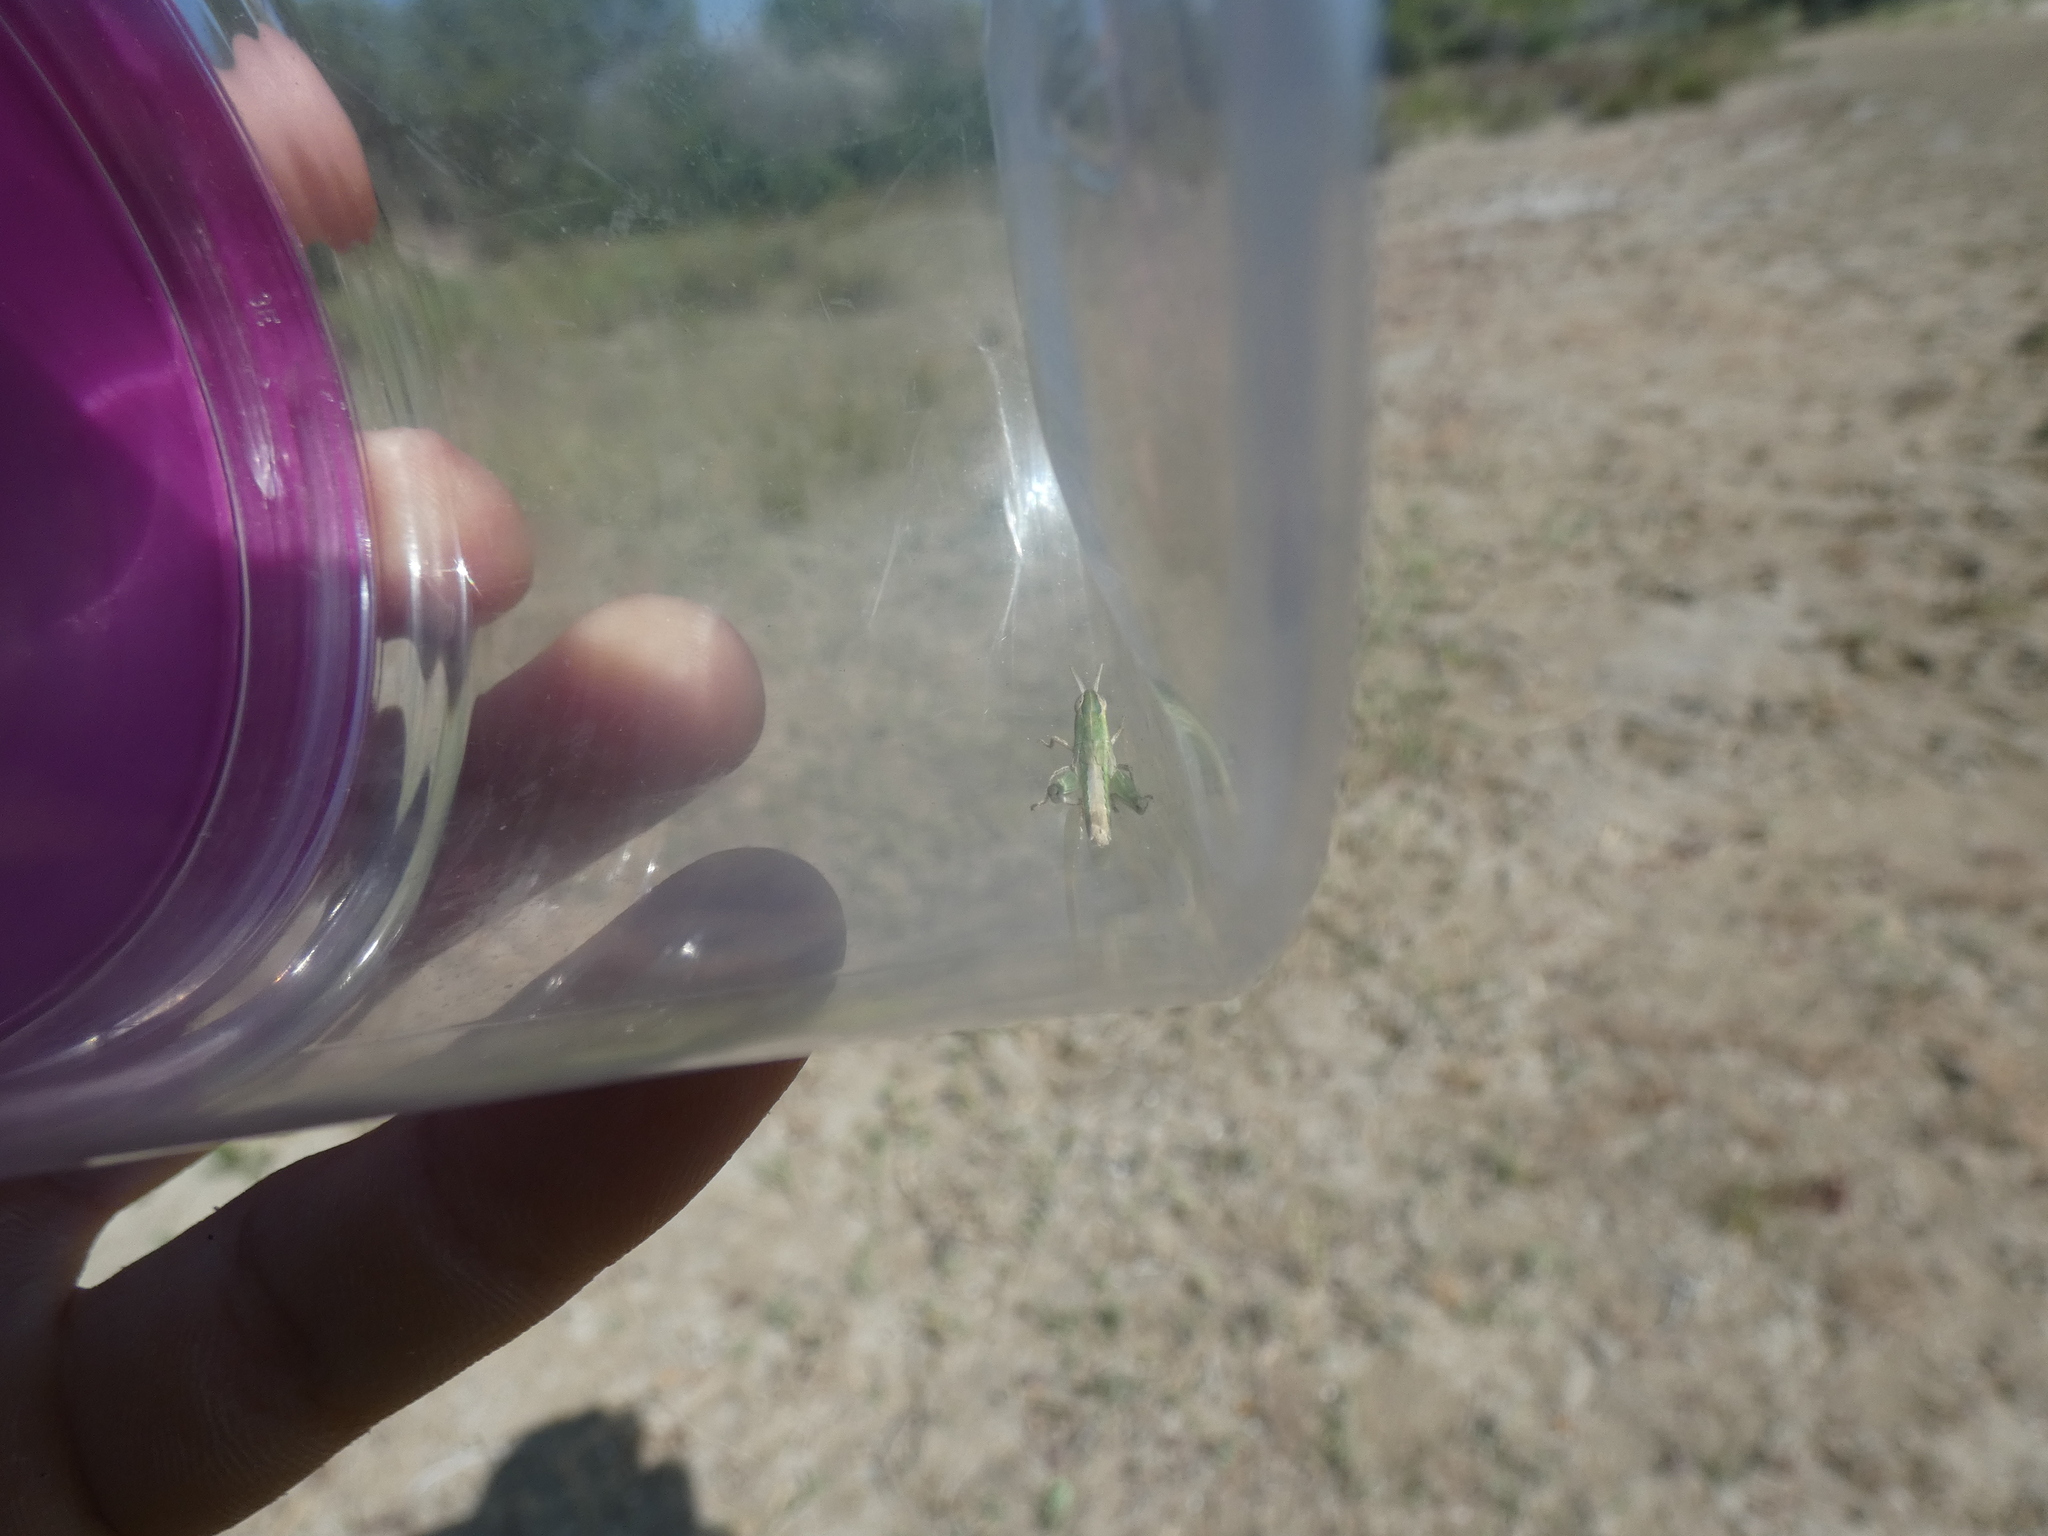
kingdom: Animalia
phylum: Arthropoda
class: Insecta
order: Orthoptera
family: Acrididae
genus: Calephorus
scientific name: Calephorus compressicornis
